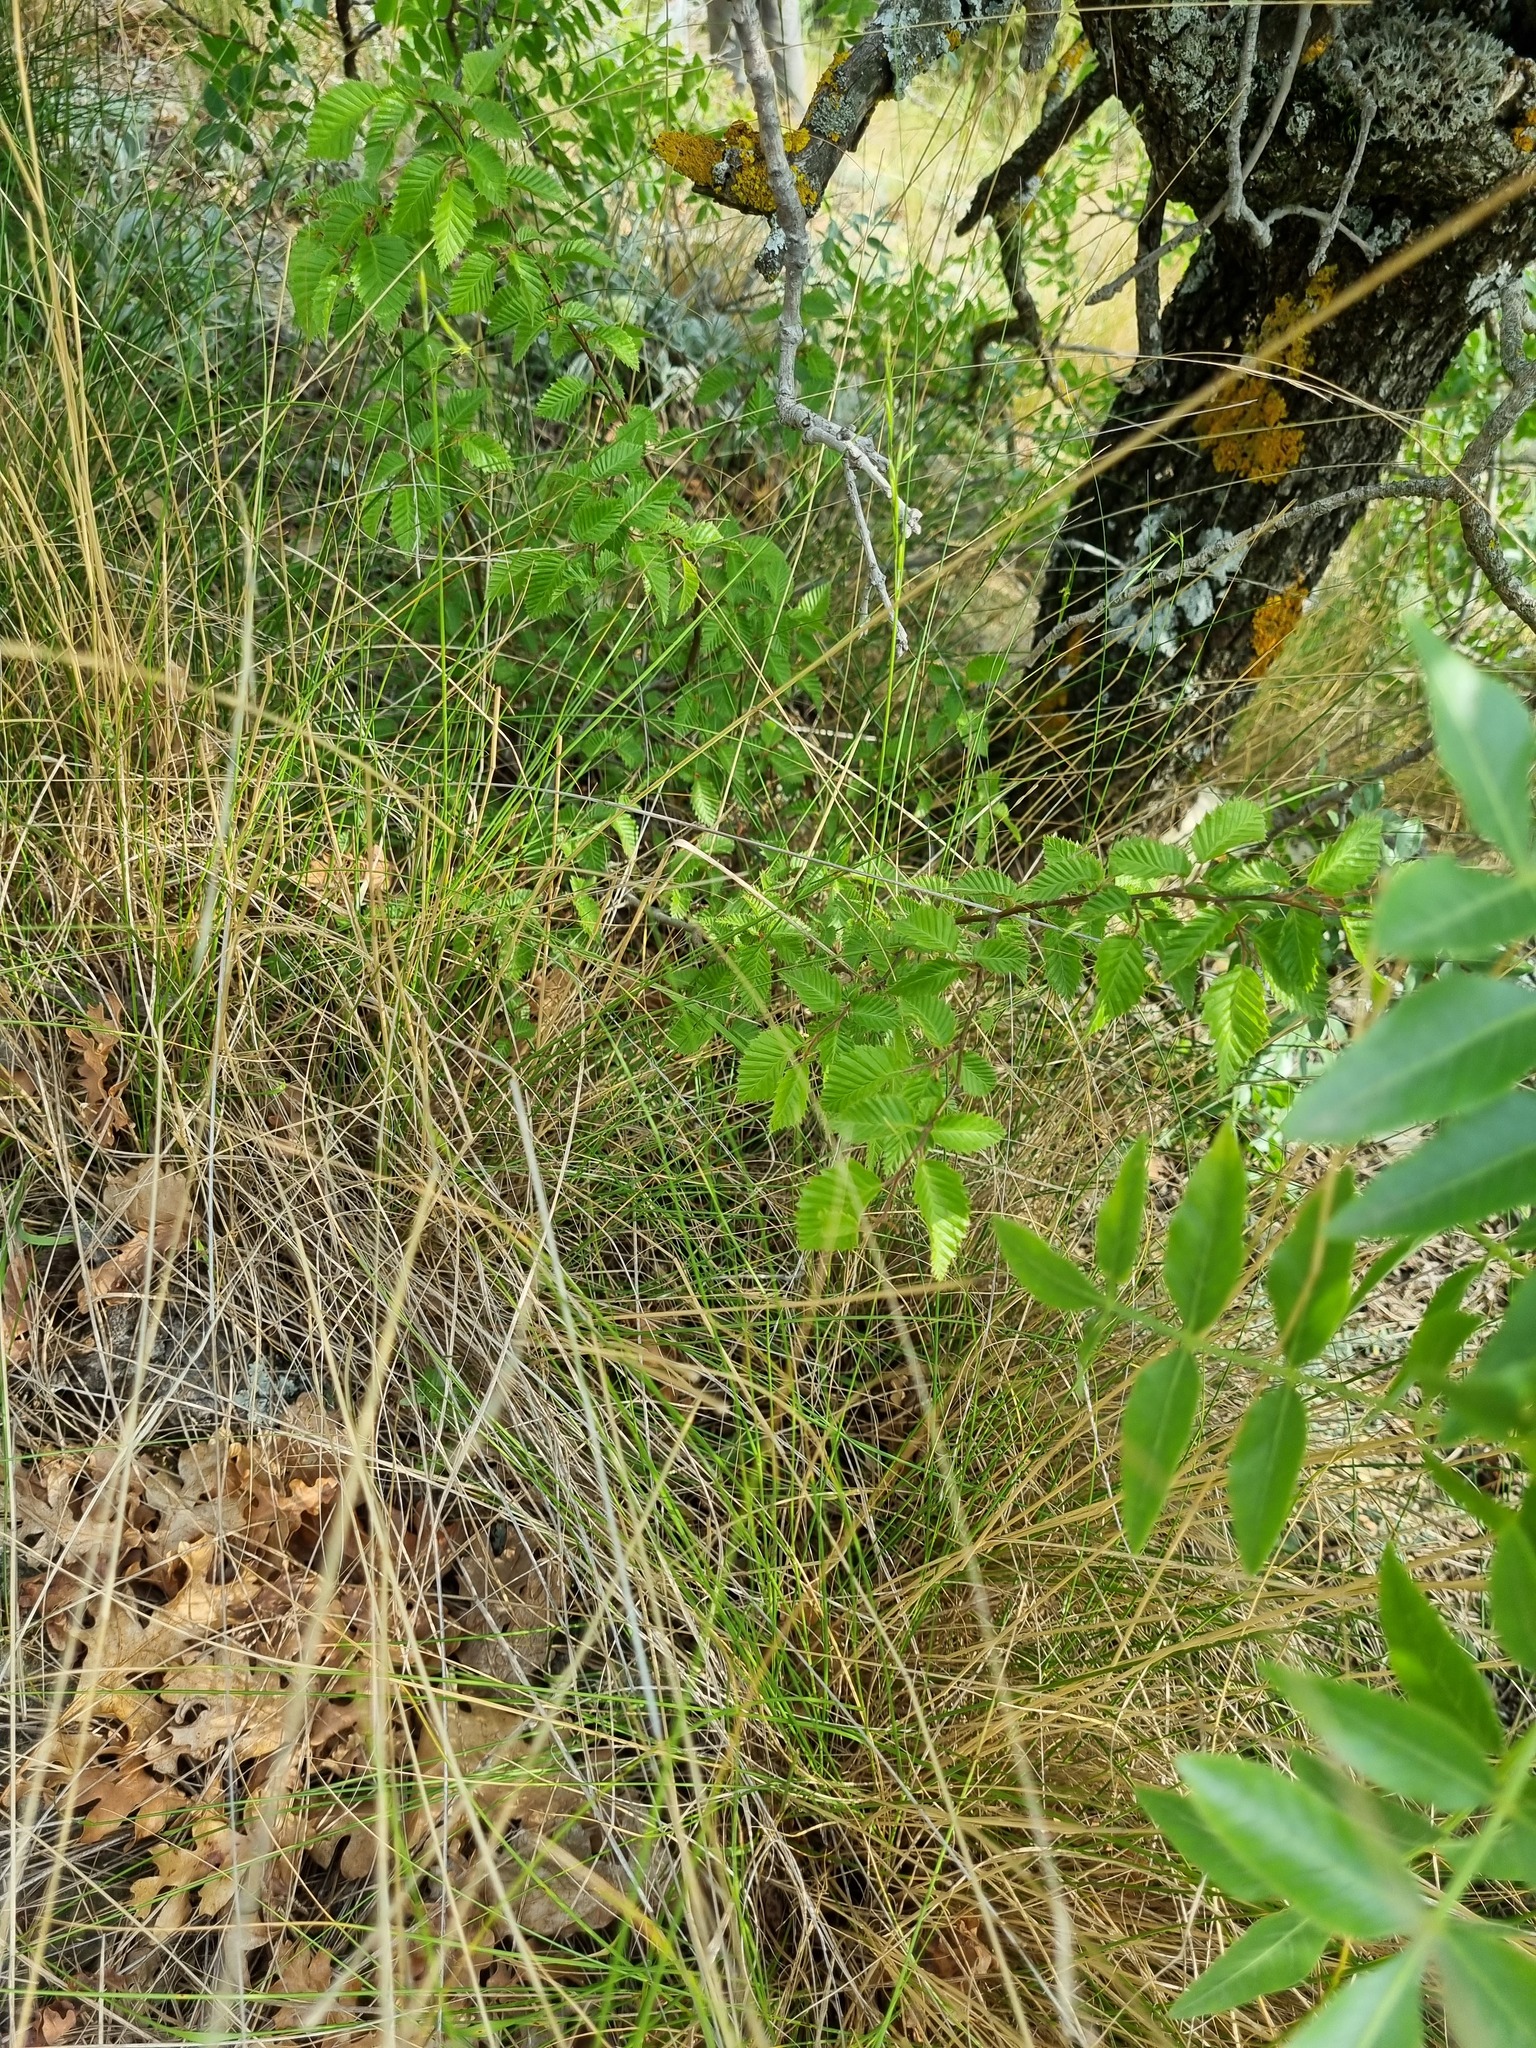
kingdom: Plantae
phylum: Tracheophyta
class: Magnoliopsida
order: Fagales
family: Betulaceae
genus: Carpinus
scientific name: Carpinus orientalis
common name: Eastern hornbeam
